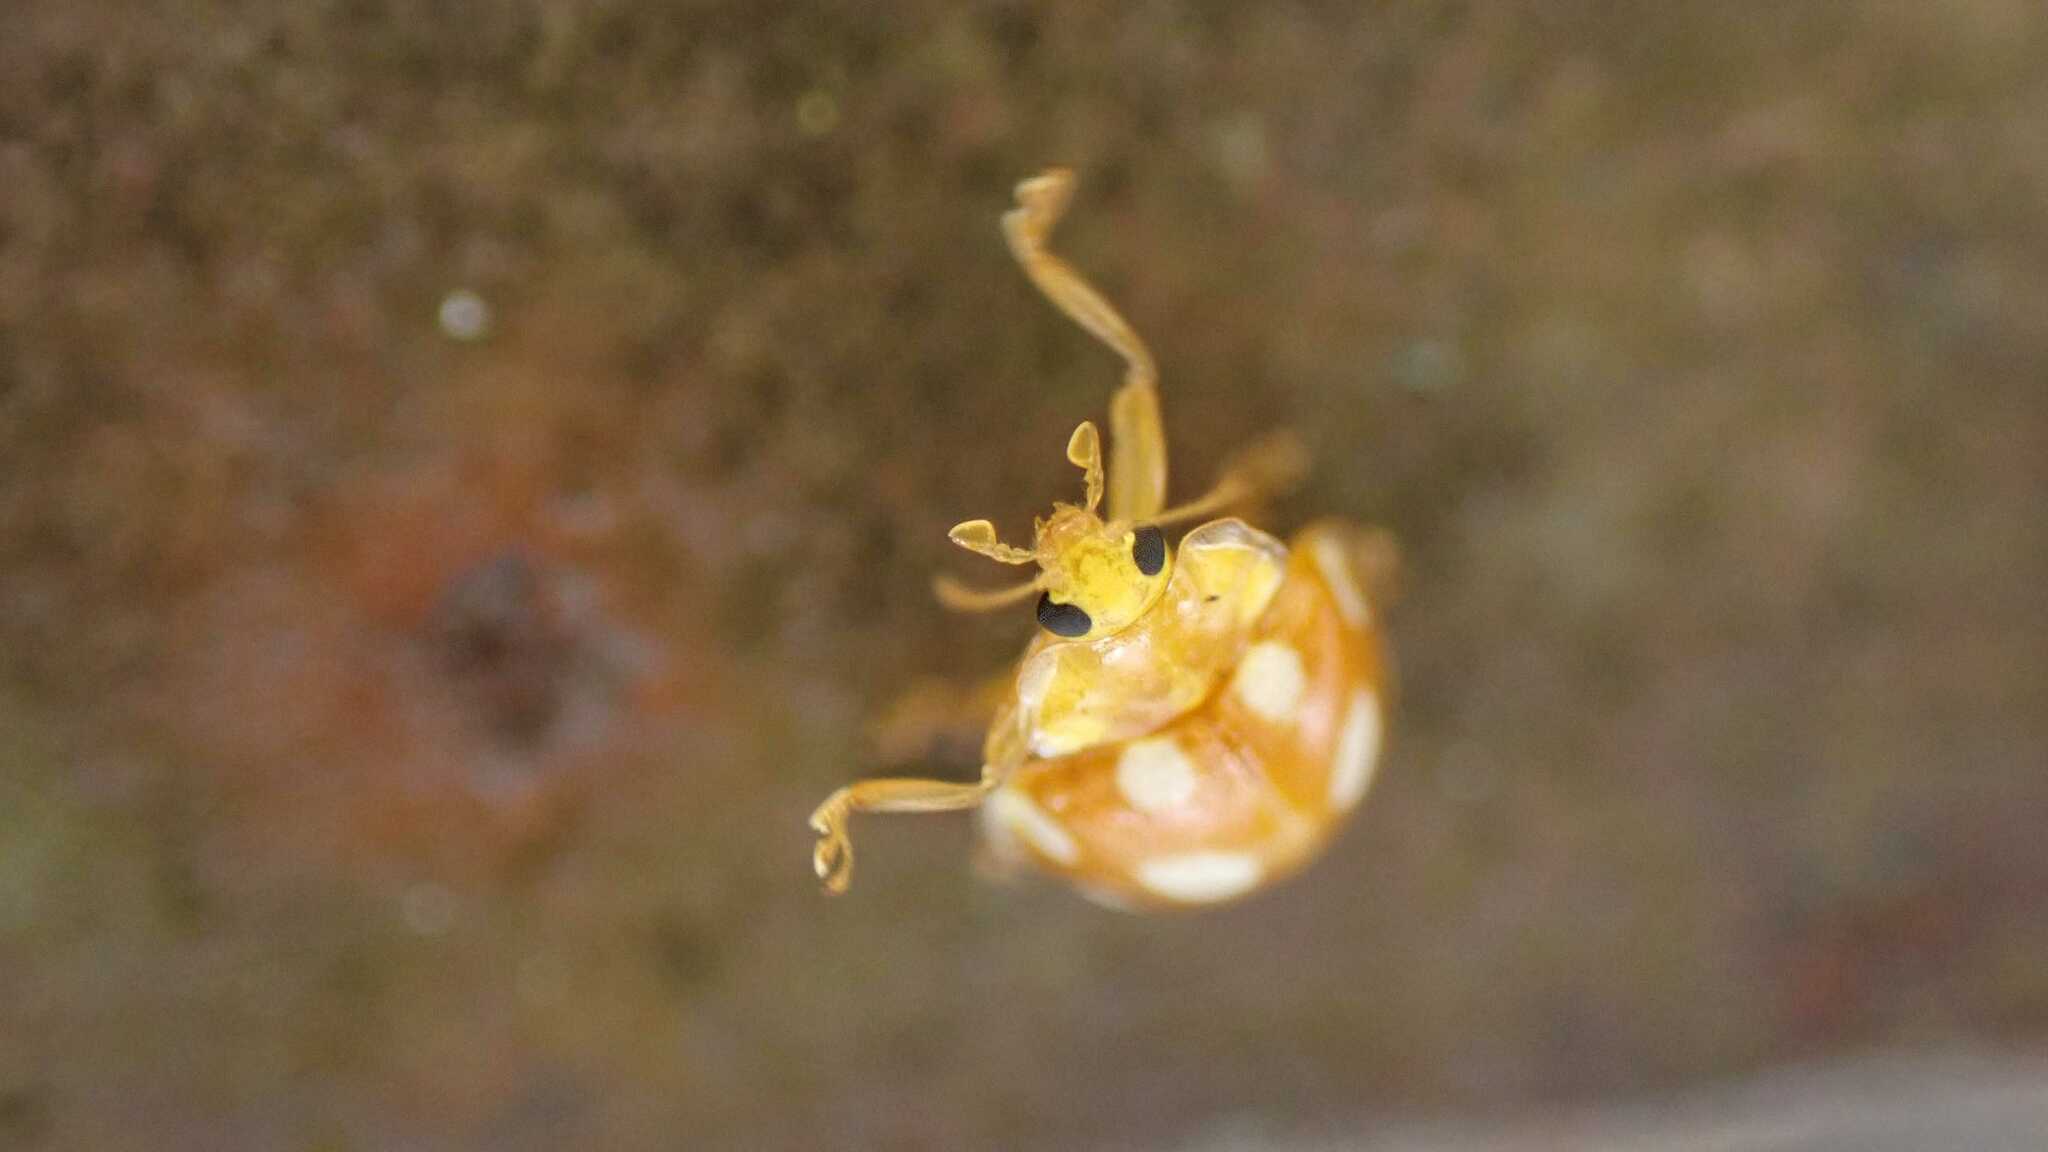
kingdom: Animalia
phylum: Arthropoda
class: Insecta
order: Coleoptera
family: Coccinellidae
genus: Halyzia
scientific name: Halyzia sedecimguttata
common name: Orange ladybird
